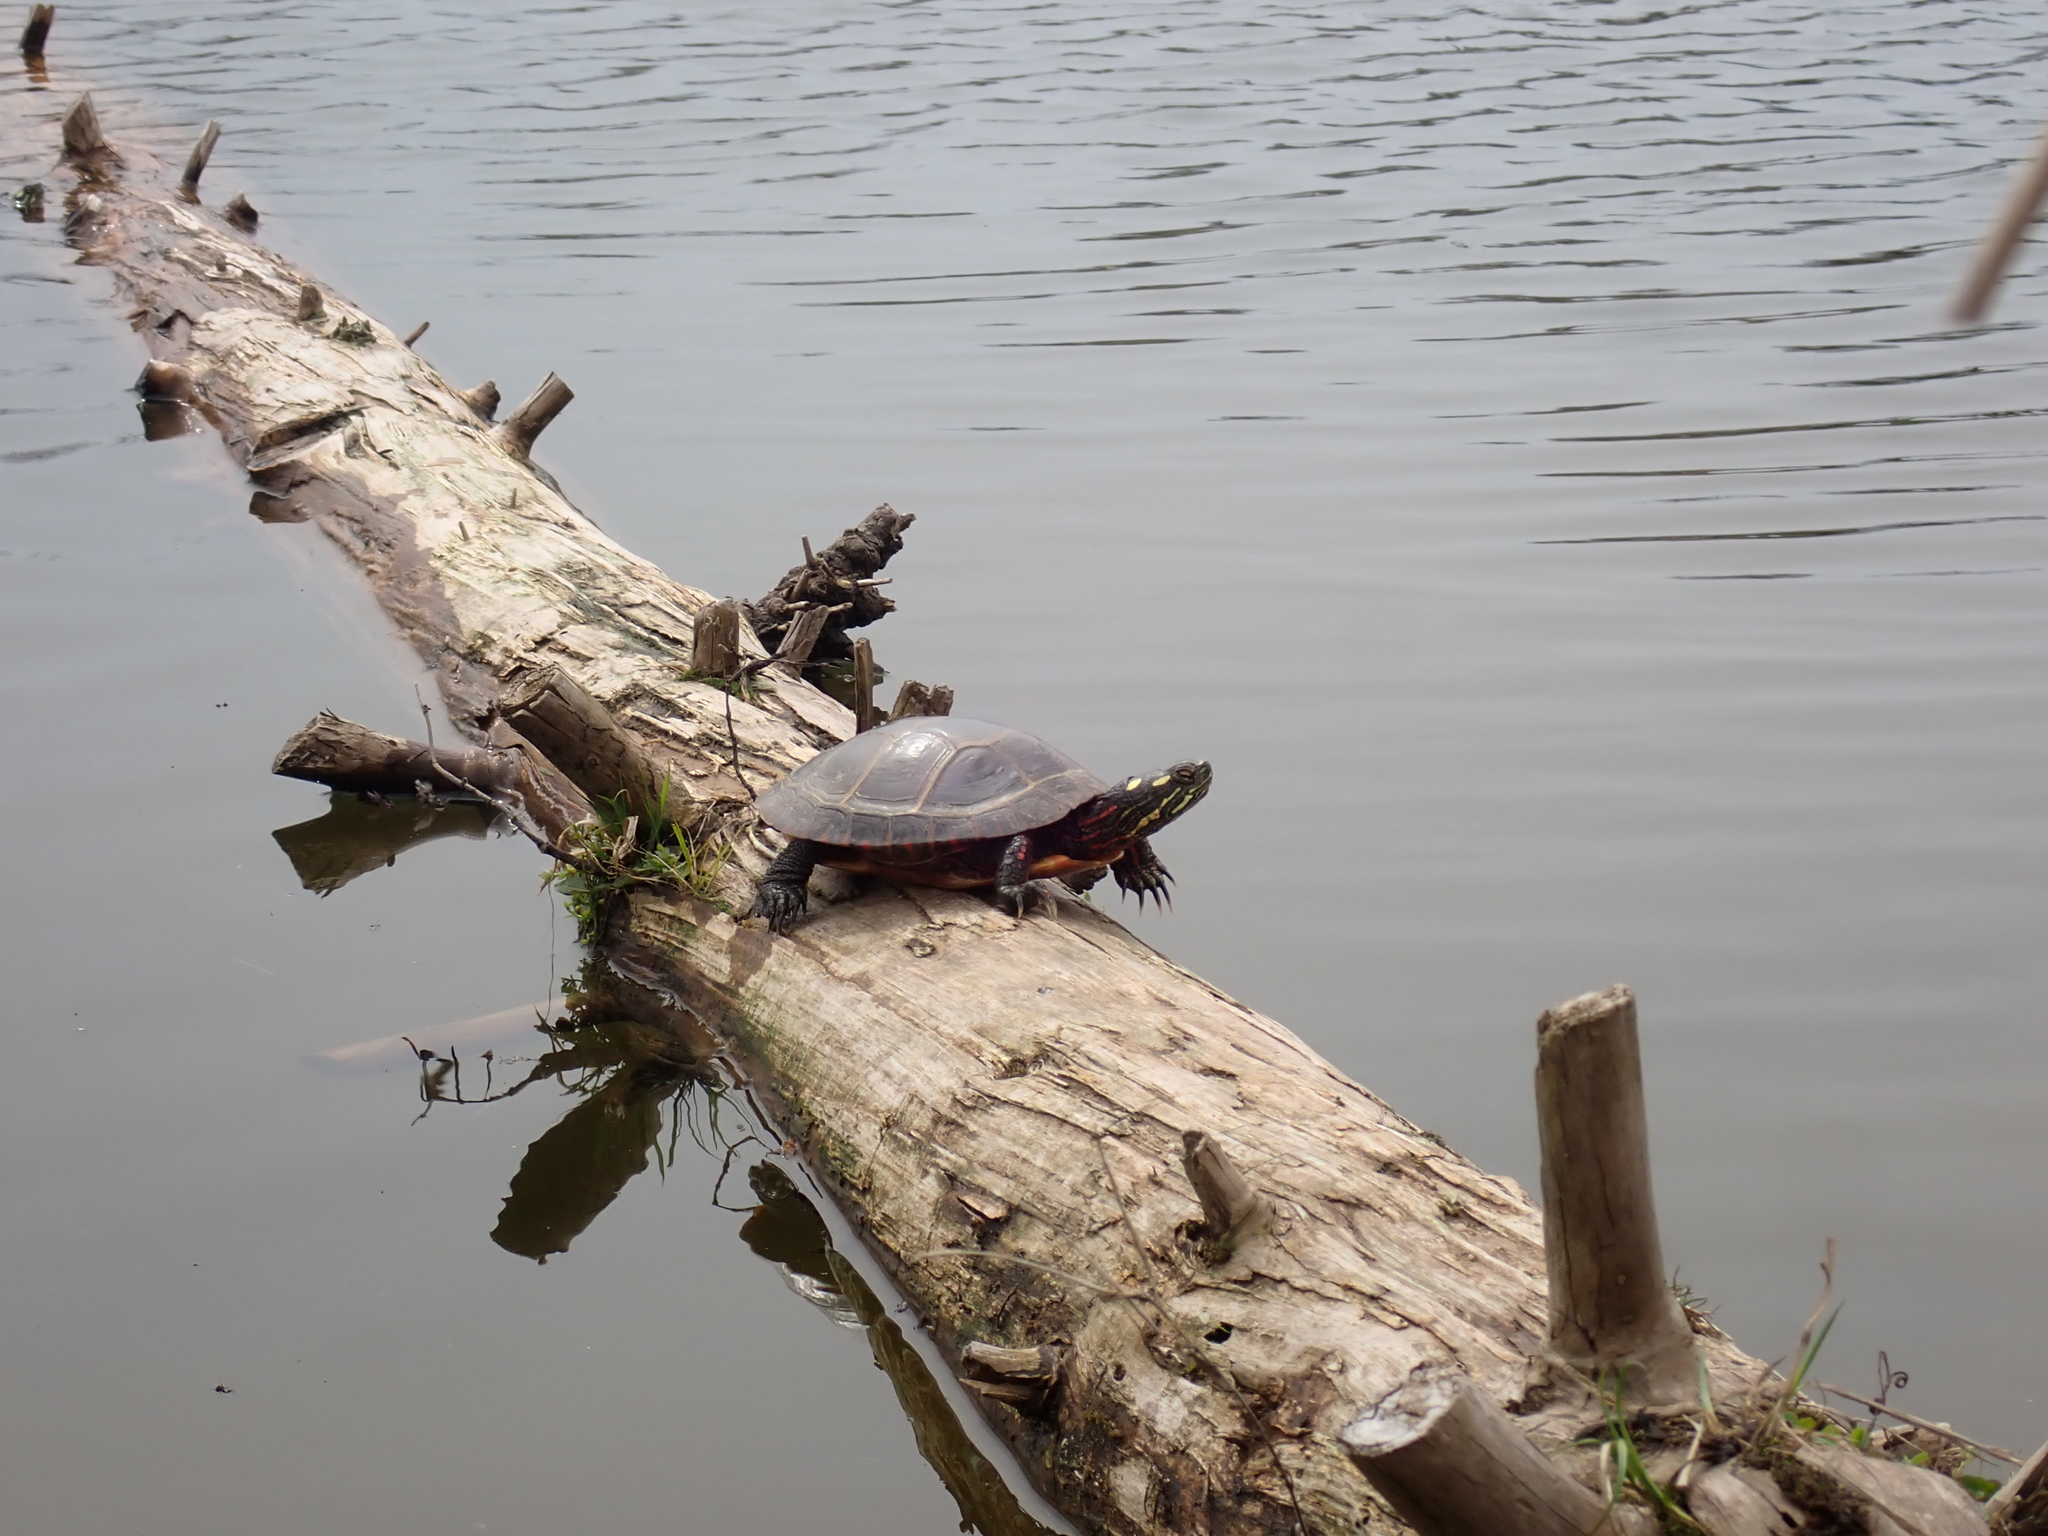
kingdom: Animalia
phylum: Chordata
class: Testudines
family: Emydidae
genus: Chrysemys
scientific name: Chrysemys picta
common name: Painted turtle
